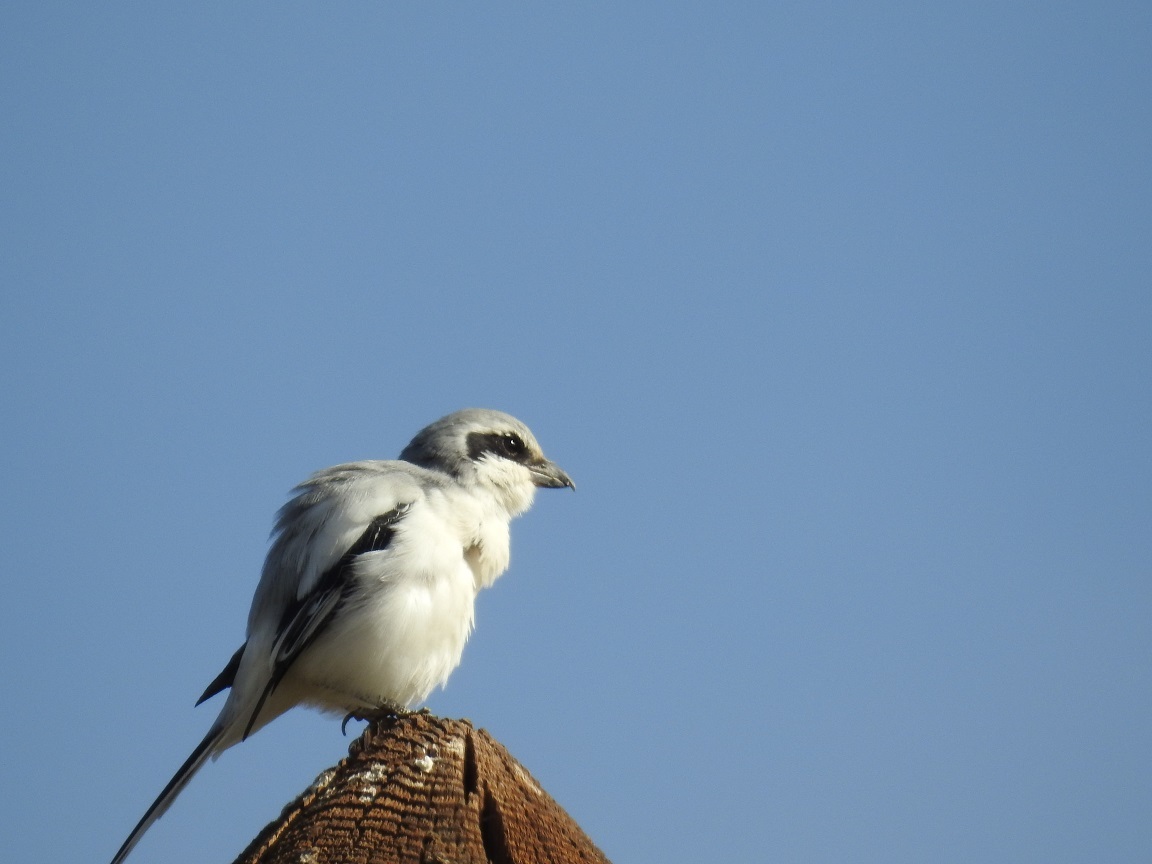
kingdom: Animalia
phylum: Chordata
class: Aves
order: Passeriformes
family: Laniidae
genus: Lanius
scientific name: Lanius excubitor
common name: Great grey shrike
